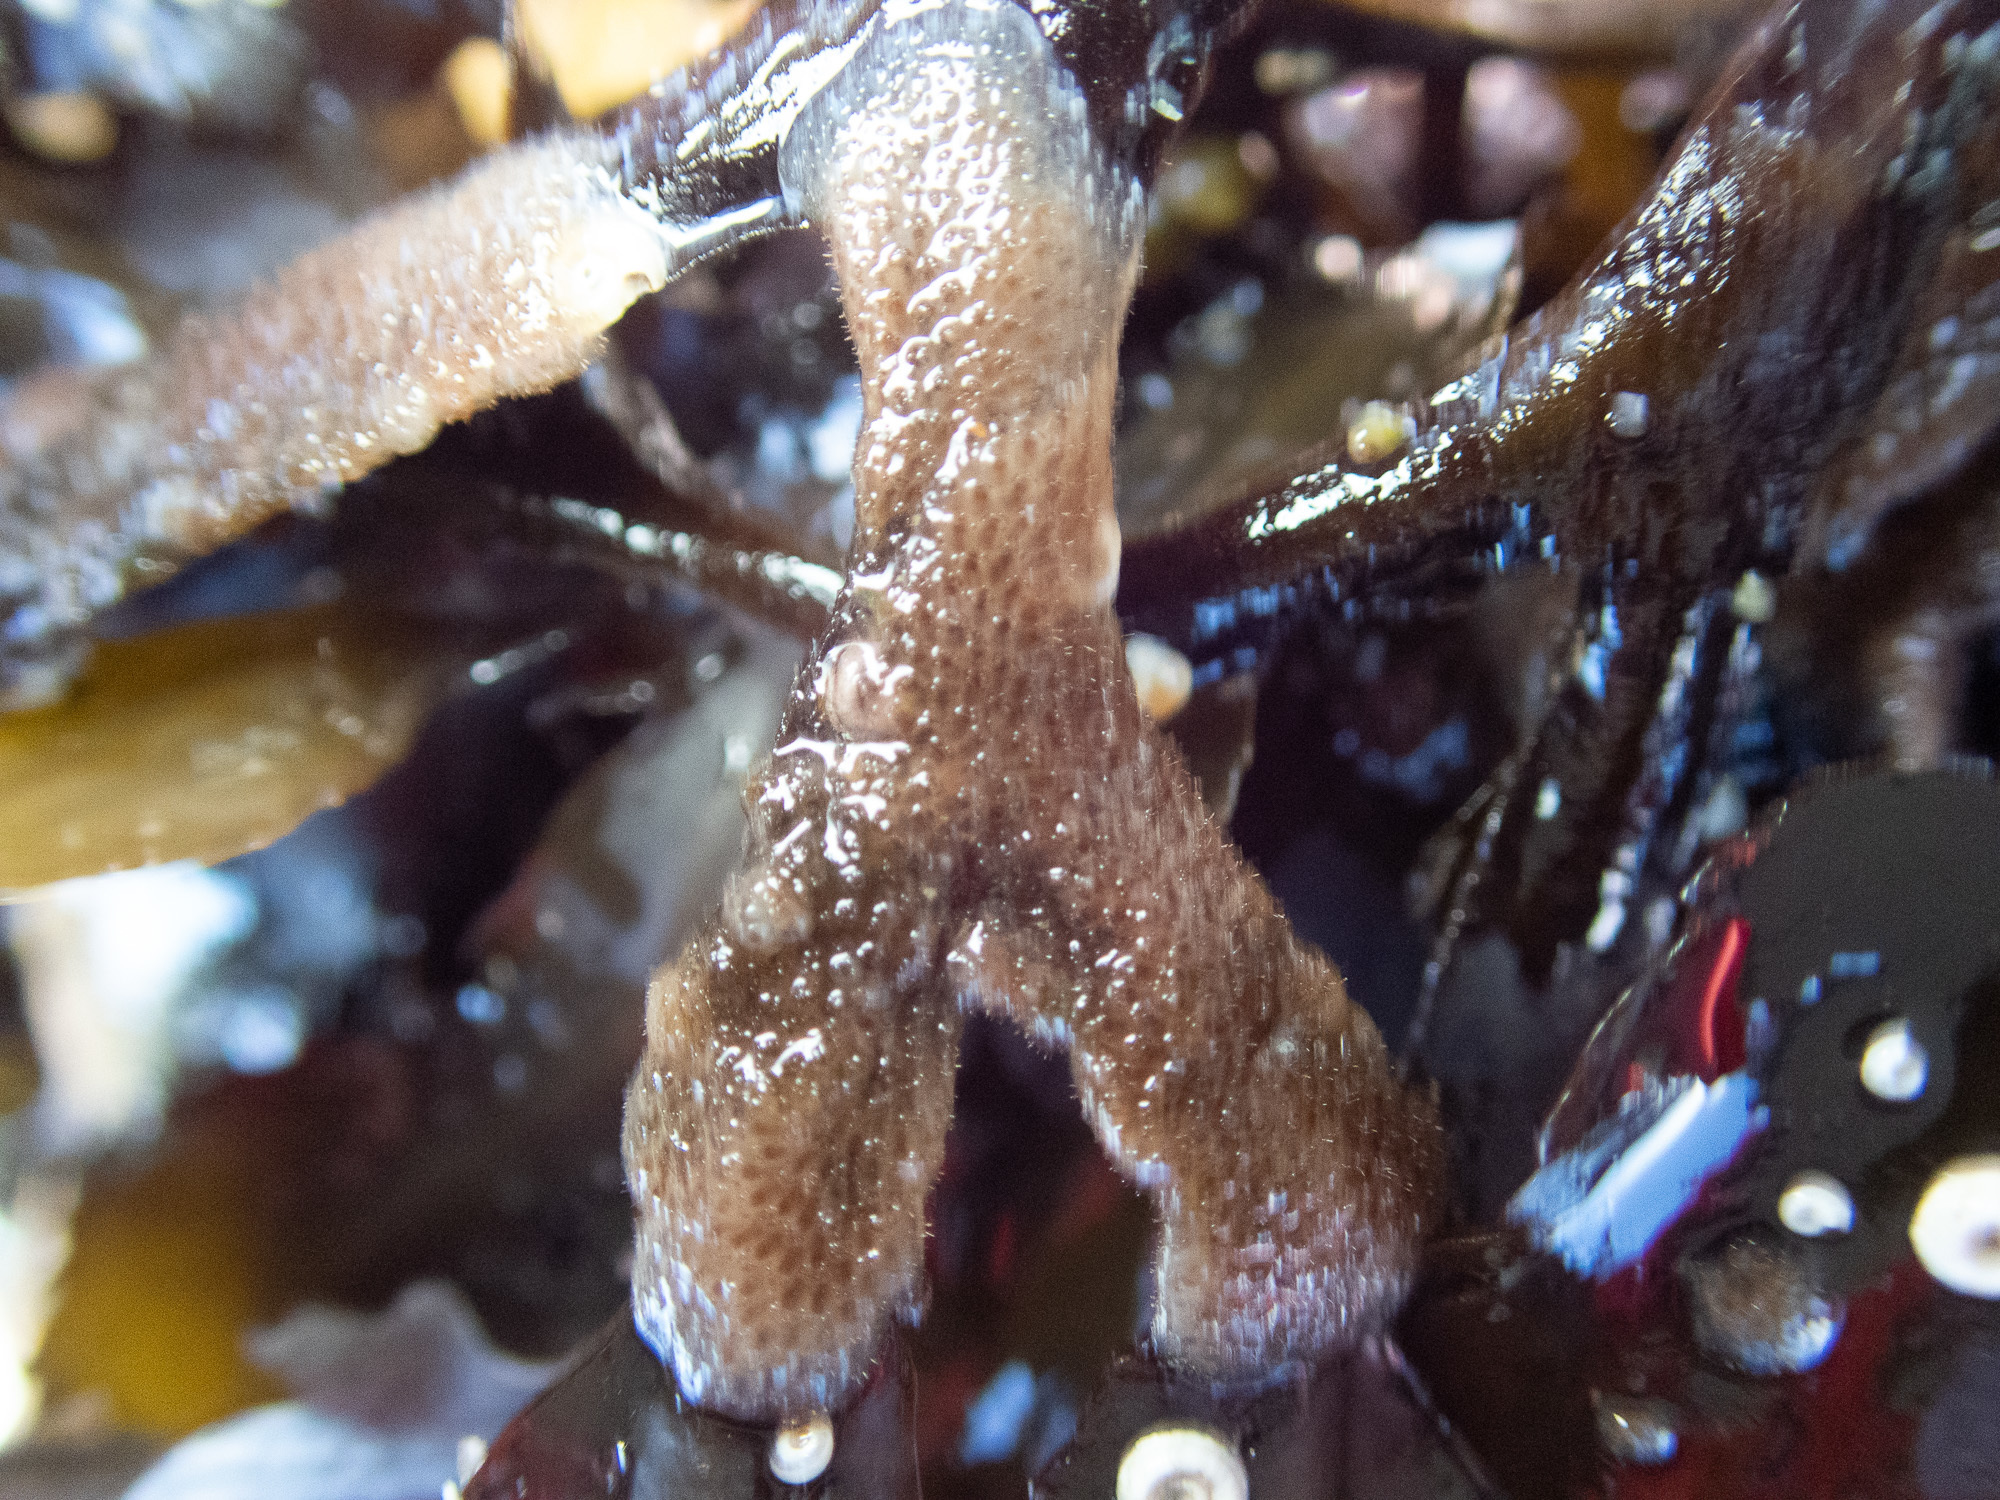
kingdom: Animalia
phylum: Bryozoa
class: Gymnolaemata
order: Ctenostomatida
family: Flustrellidridae
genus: Flustrellidra
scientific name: Flustrellidra hispida
